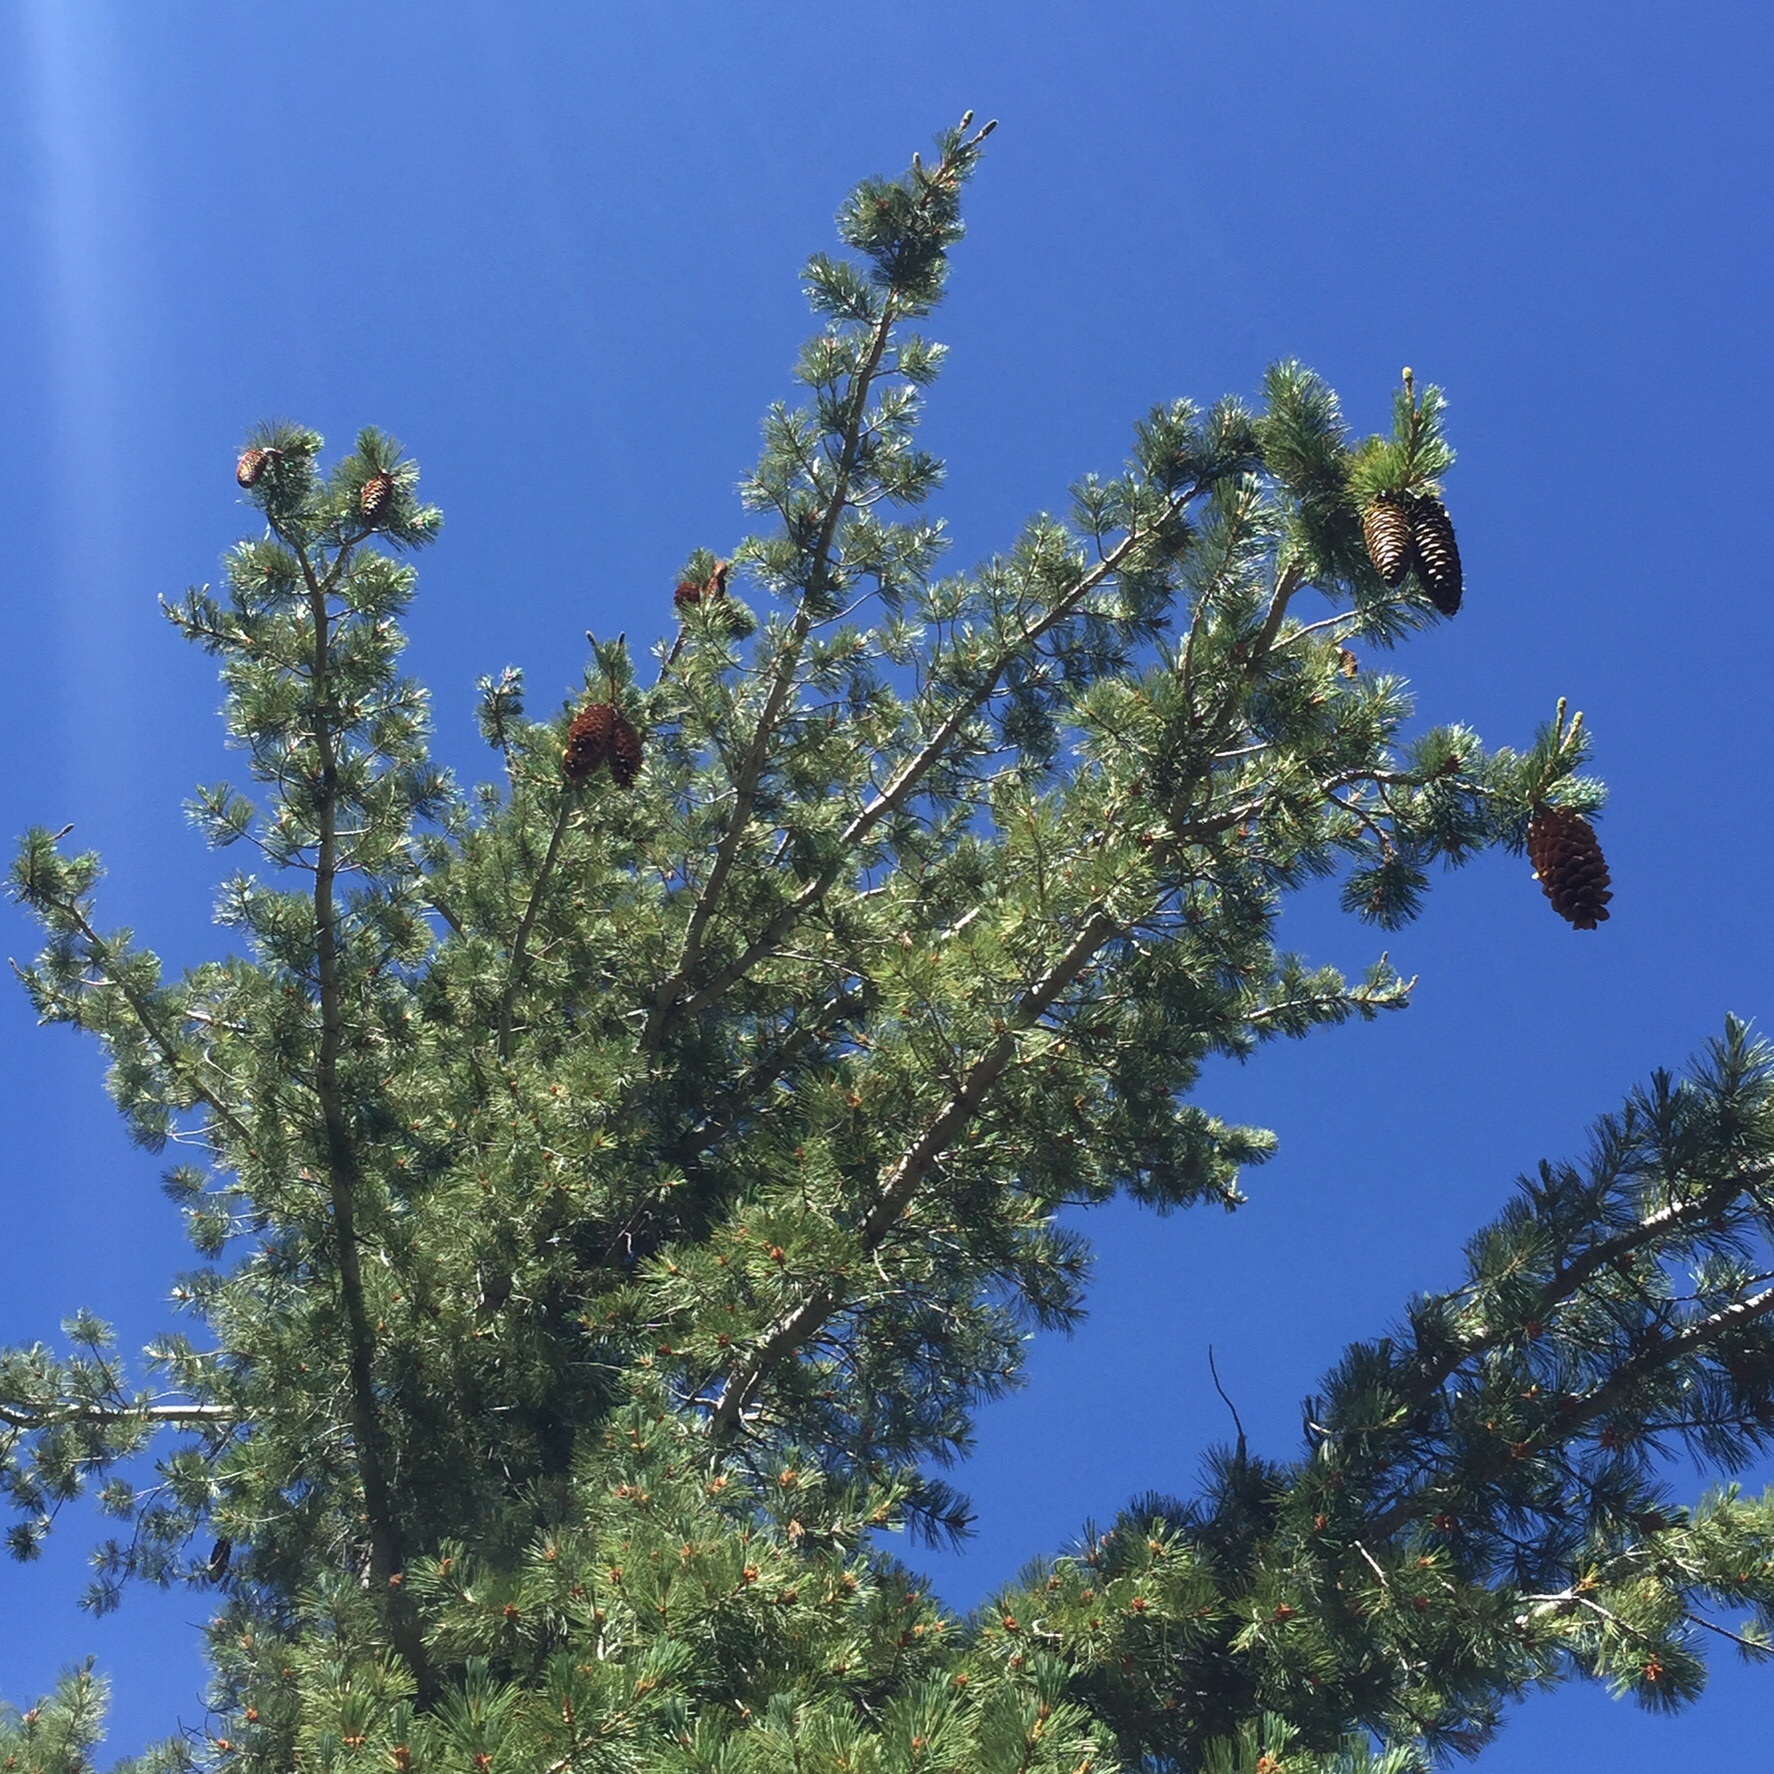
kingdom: Plantae
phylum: Tracheophyta
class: Pinopsida
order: Pinales
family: Pinaceae
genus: Pinus
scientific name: Pinus lambertiana
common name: Sugar pine
